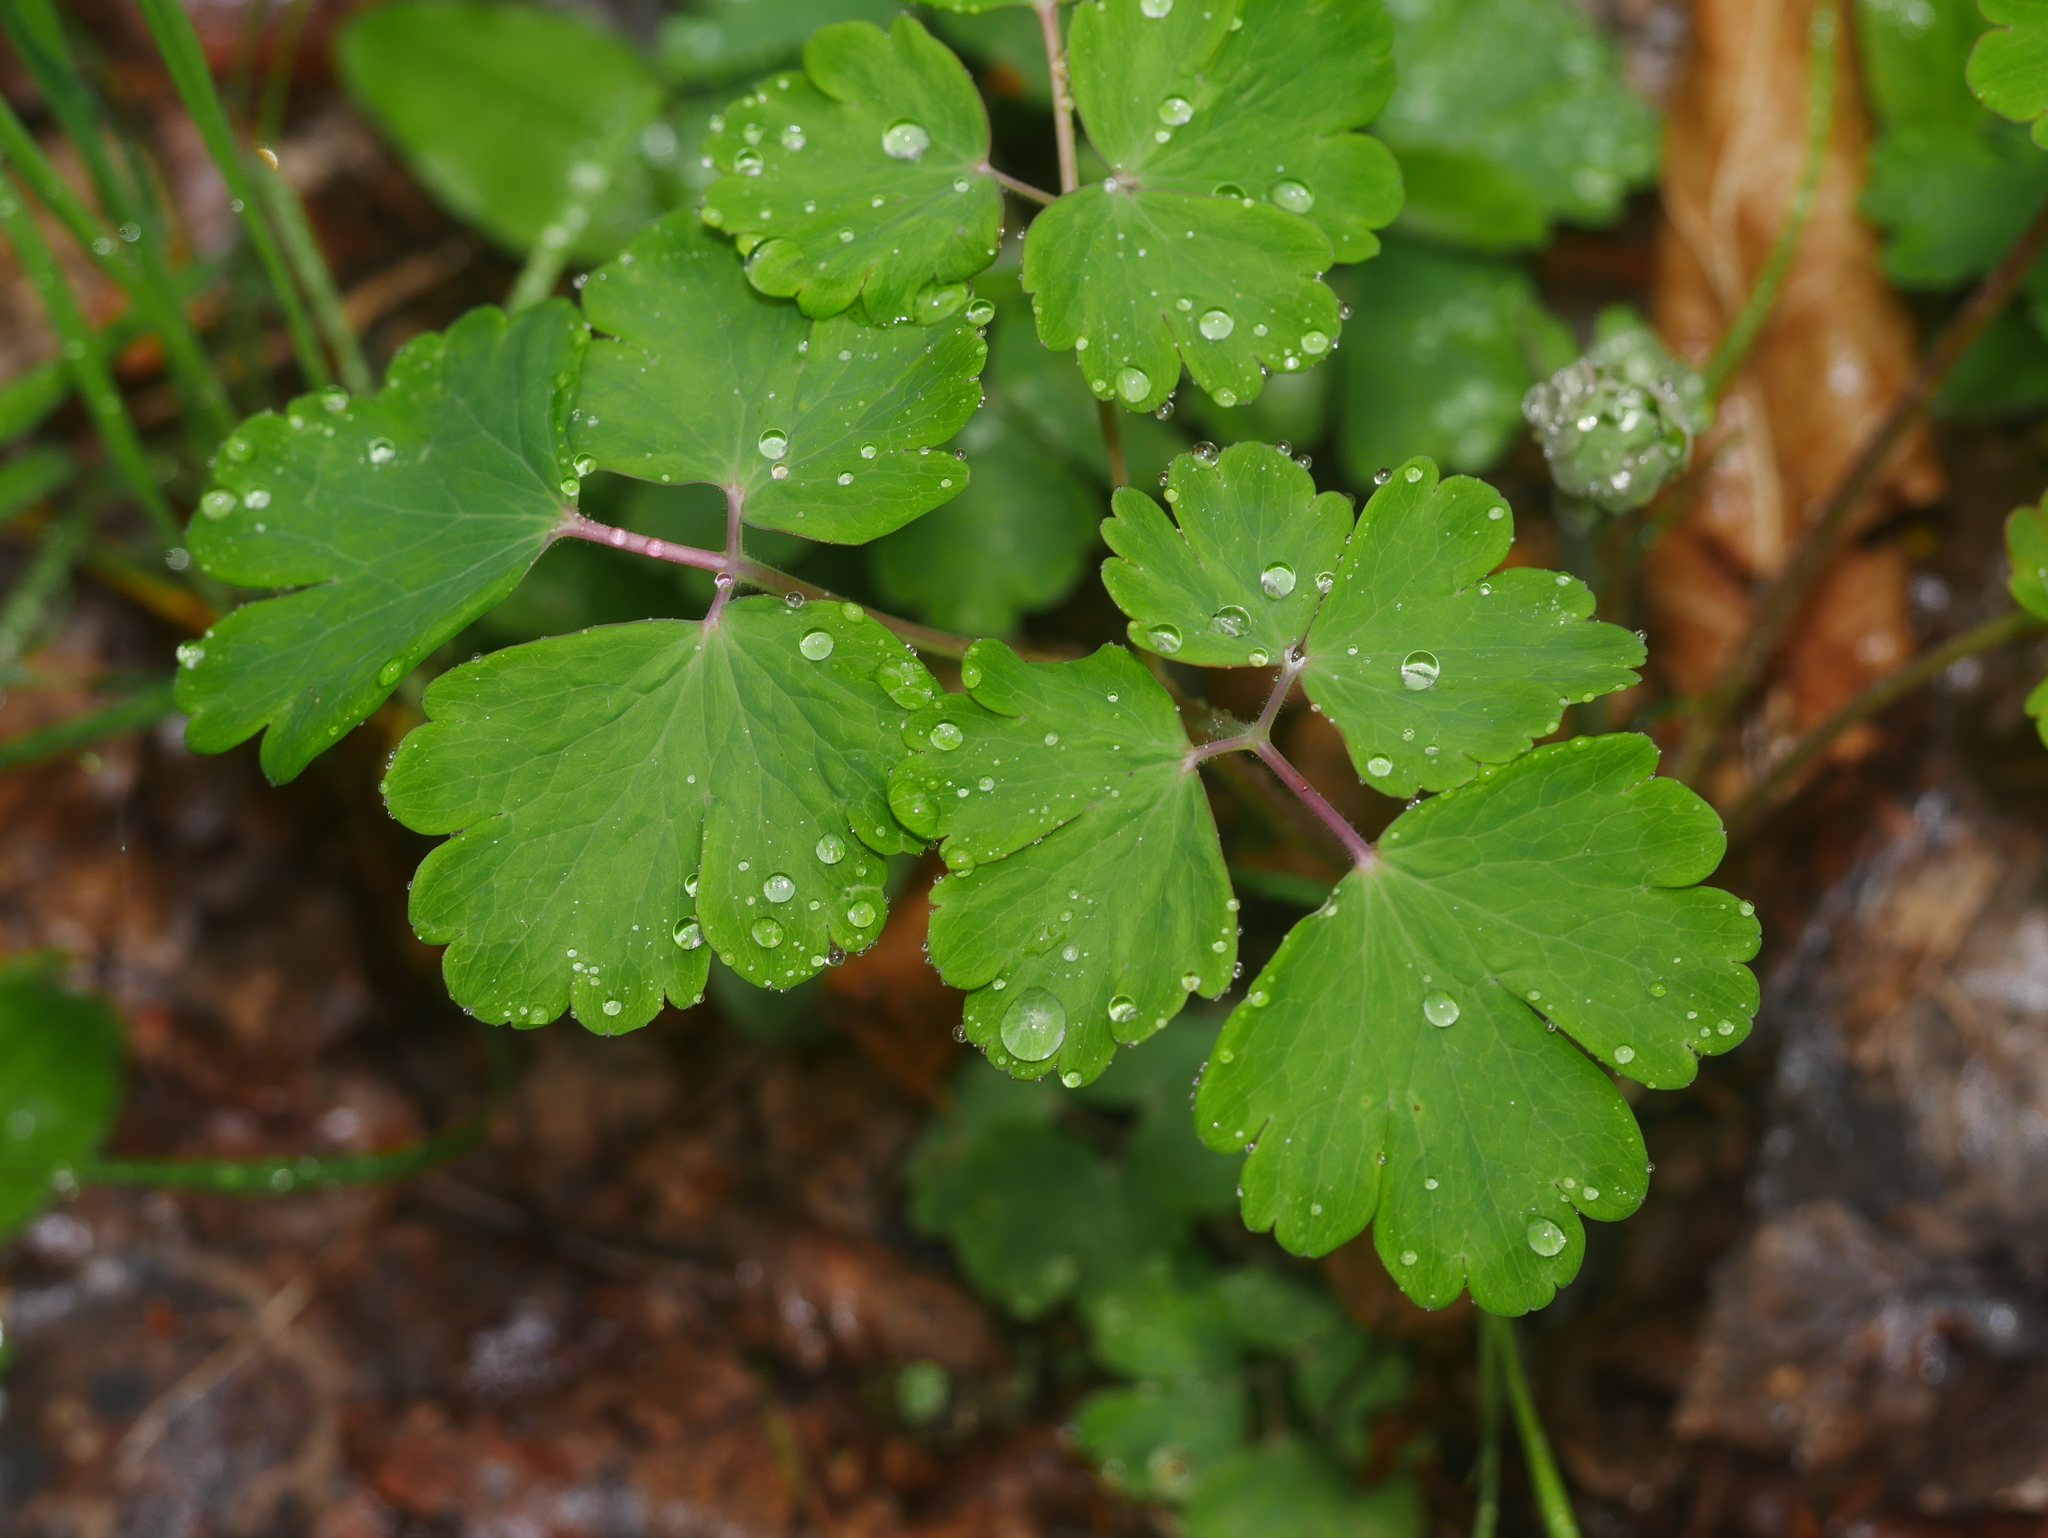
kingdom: Plantae
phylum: Tracheophyta
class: Magnoliopsida
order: Ranunculales
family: Ranunculaceae
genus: Aquilegia
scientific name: Aquilegia vulgaris
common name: Columbine
